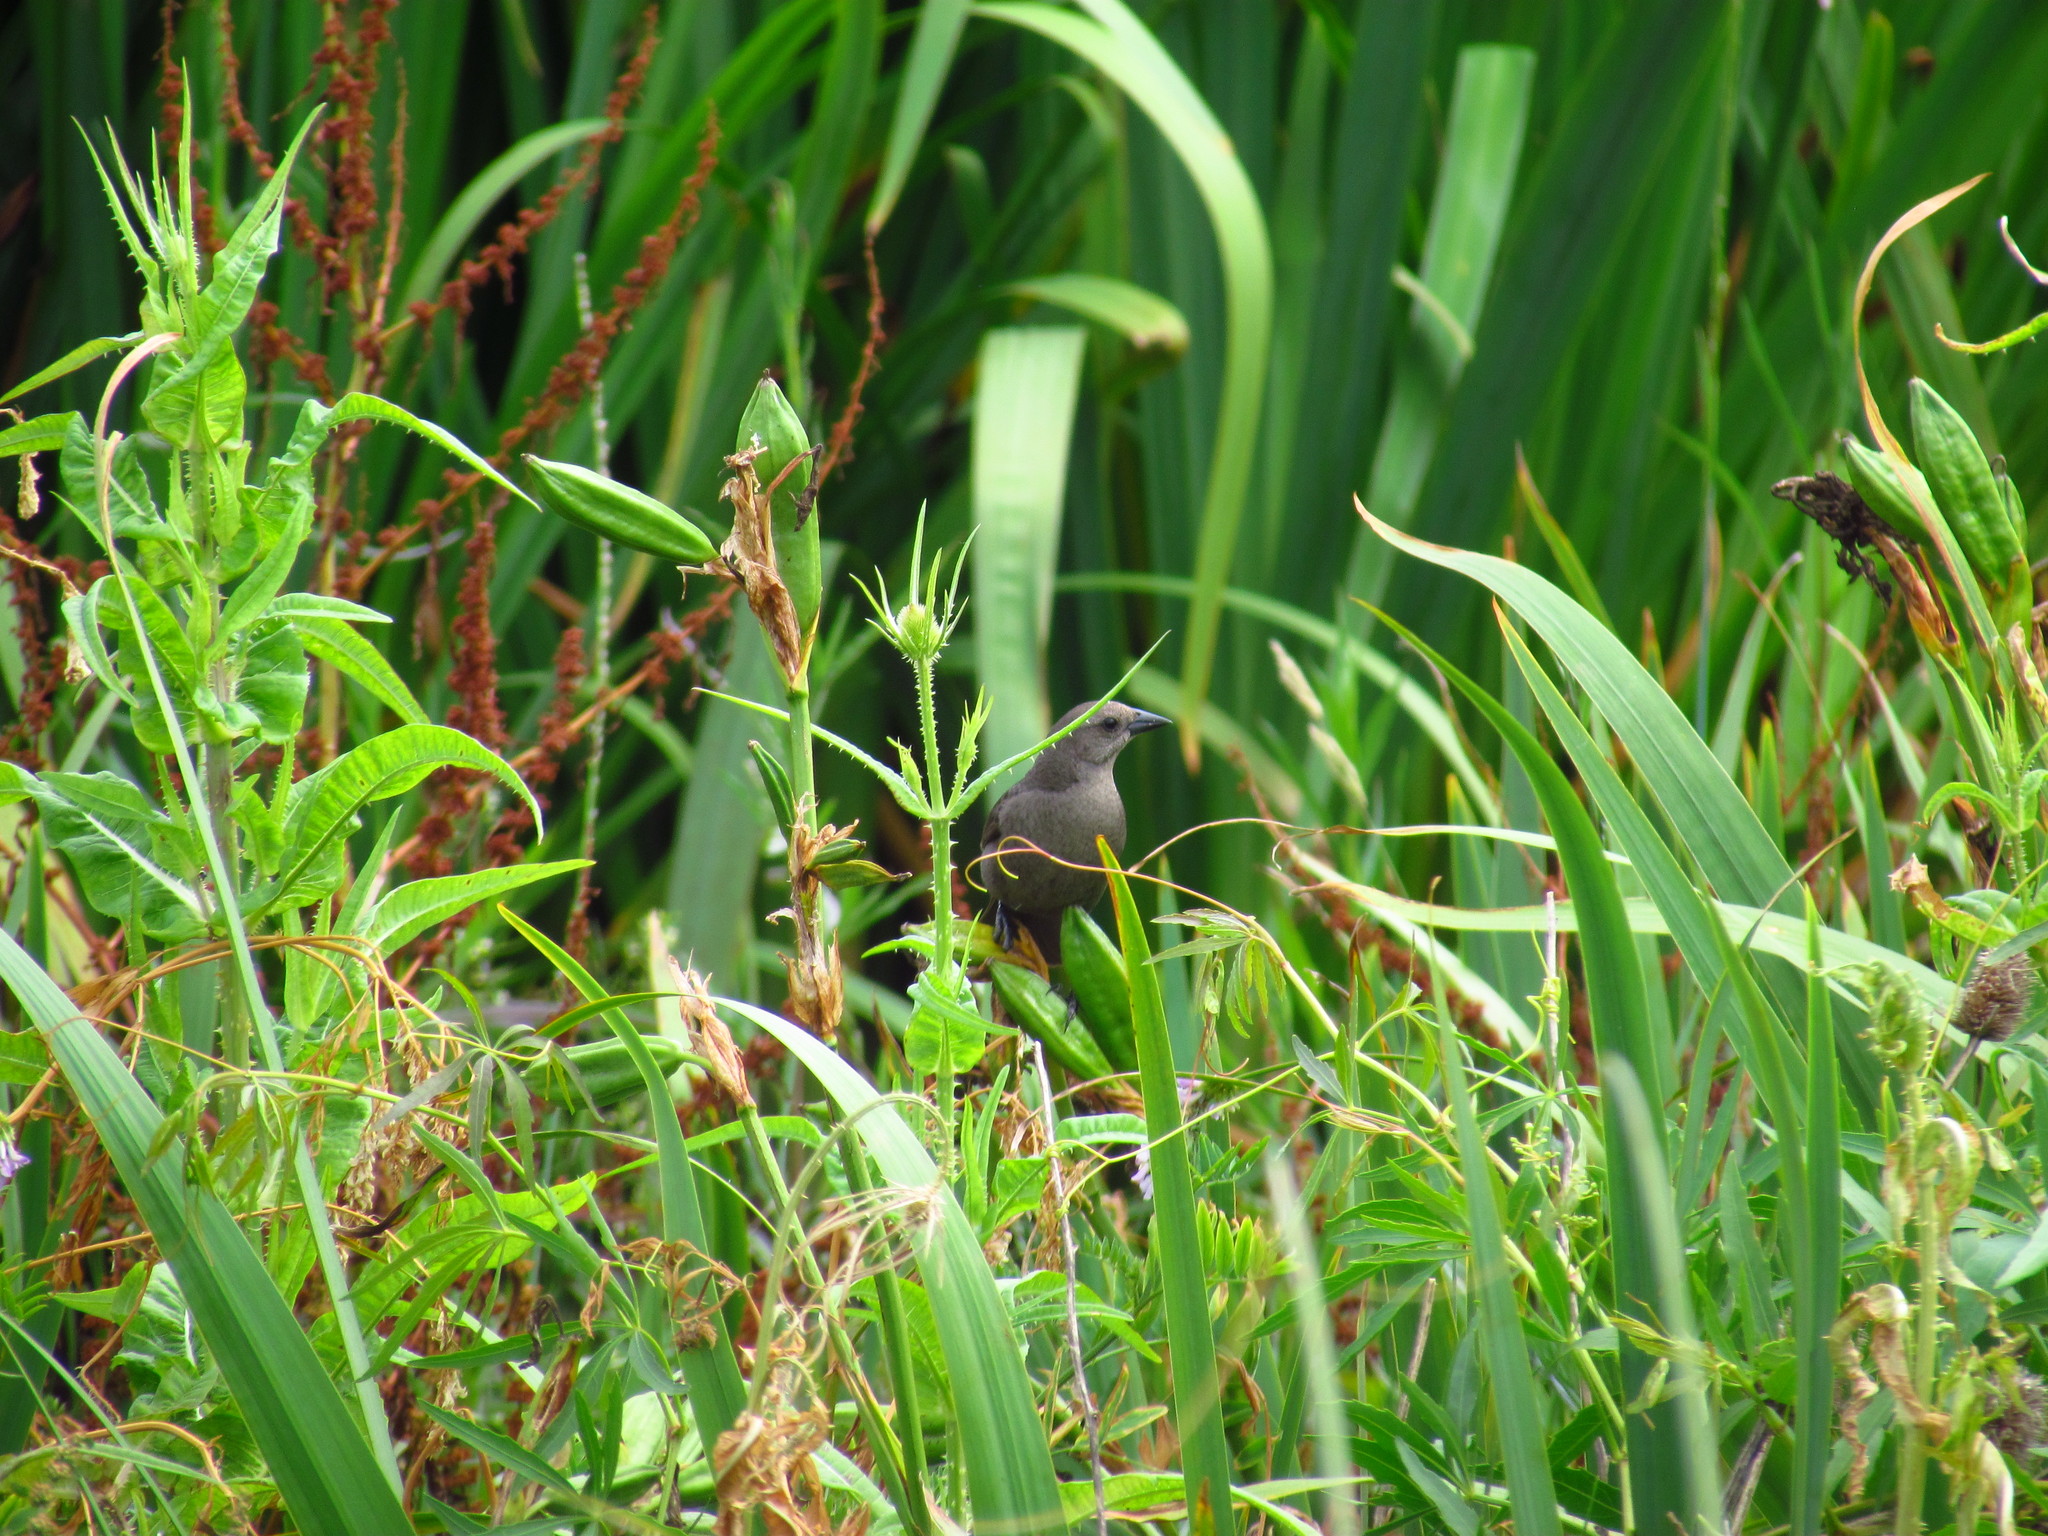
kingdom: Animalia
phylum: Chordata
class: Aves
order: Passeriformes
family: Icteridae
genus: Molothrus
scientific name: Molothrus bonariensis
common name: Shiny cowbird
